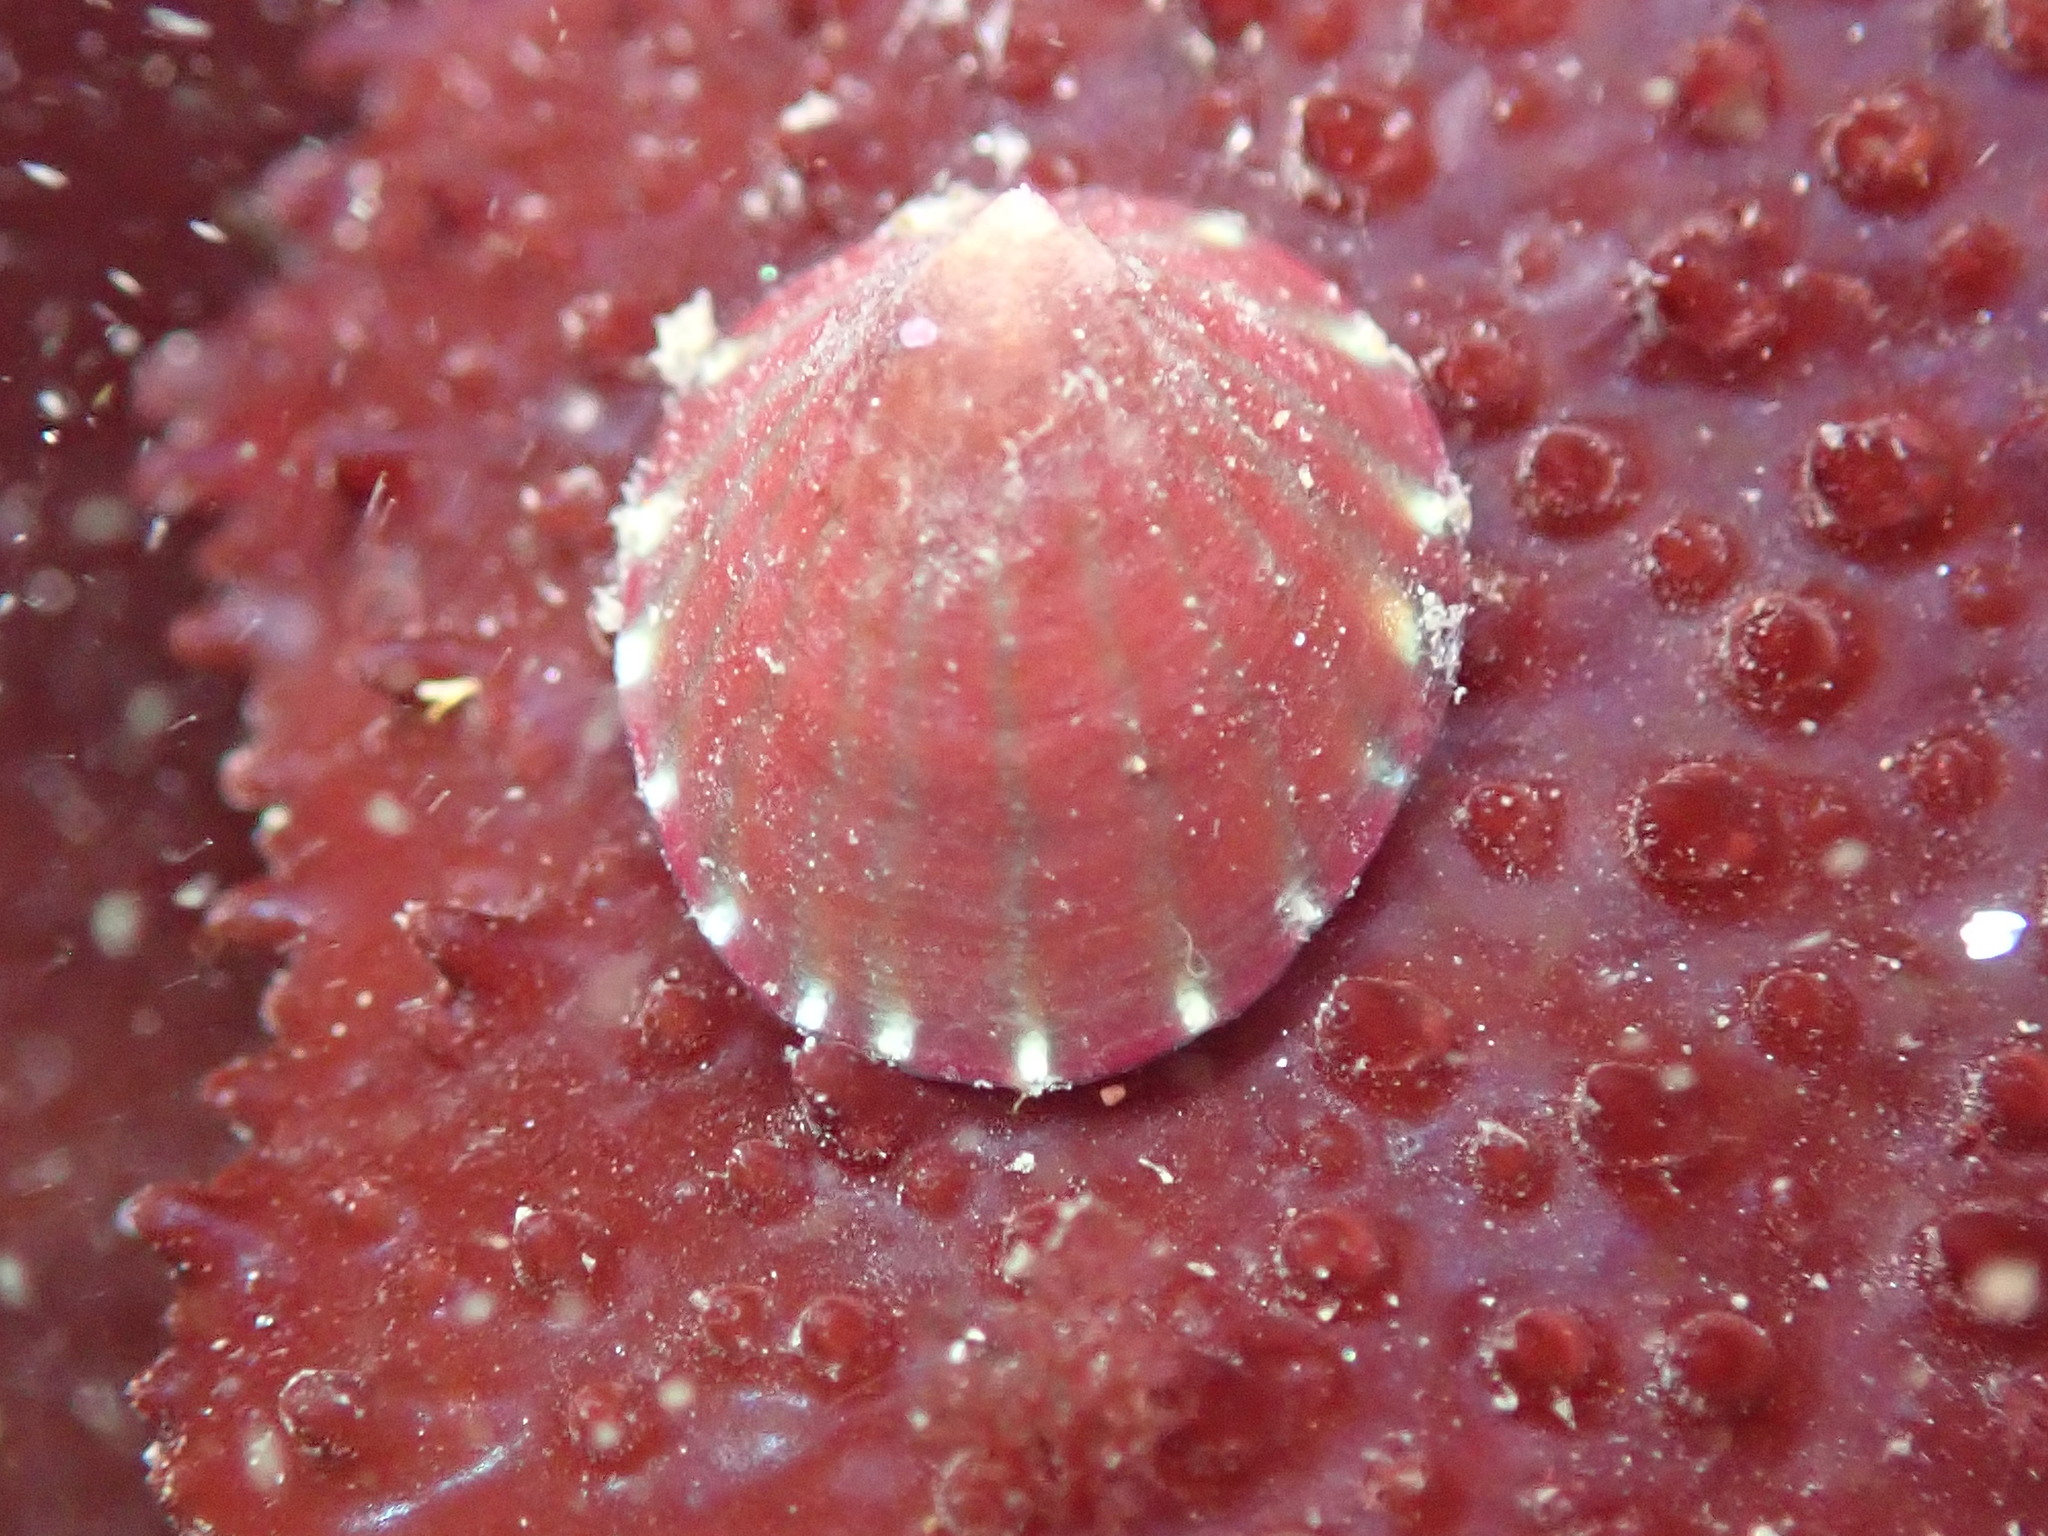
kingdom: Animalia
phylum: Mollusca
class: Gastropoda
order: Siphonariida
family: Siphonariidae
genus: Williamia
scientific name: Williamia peltoides
